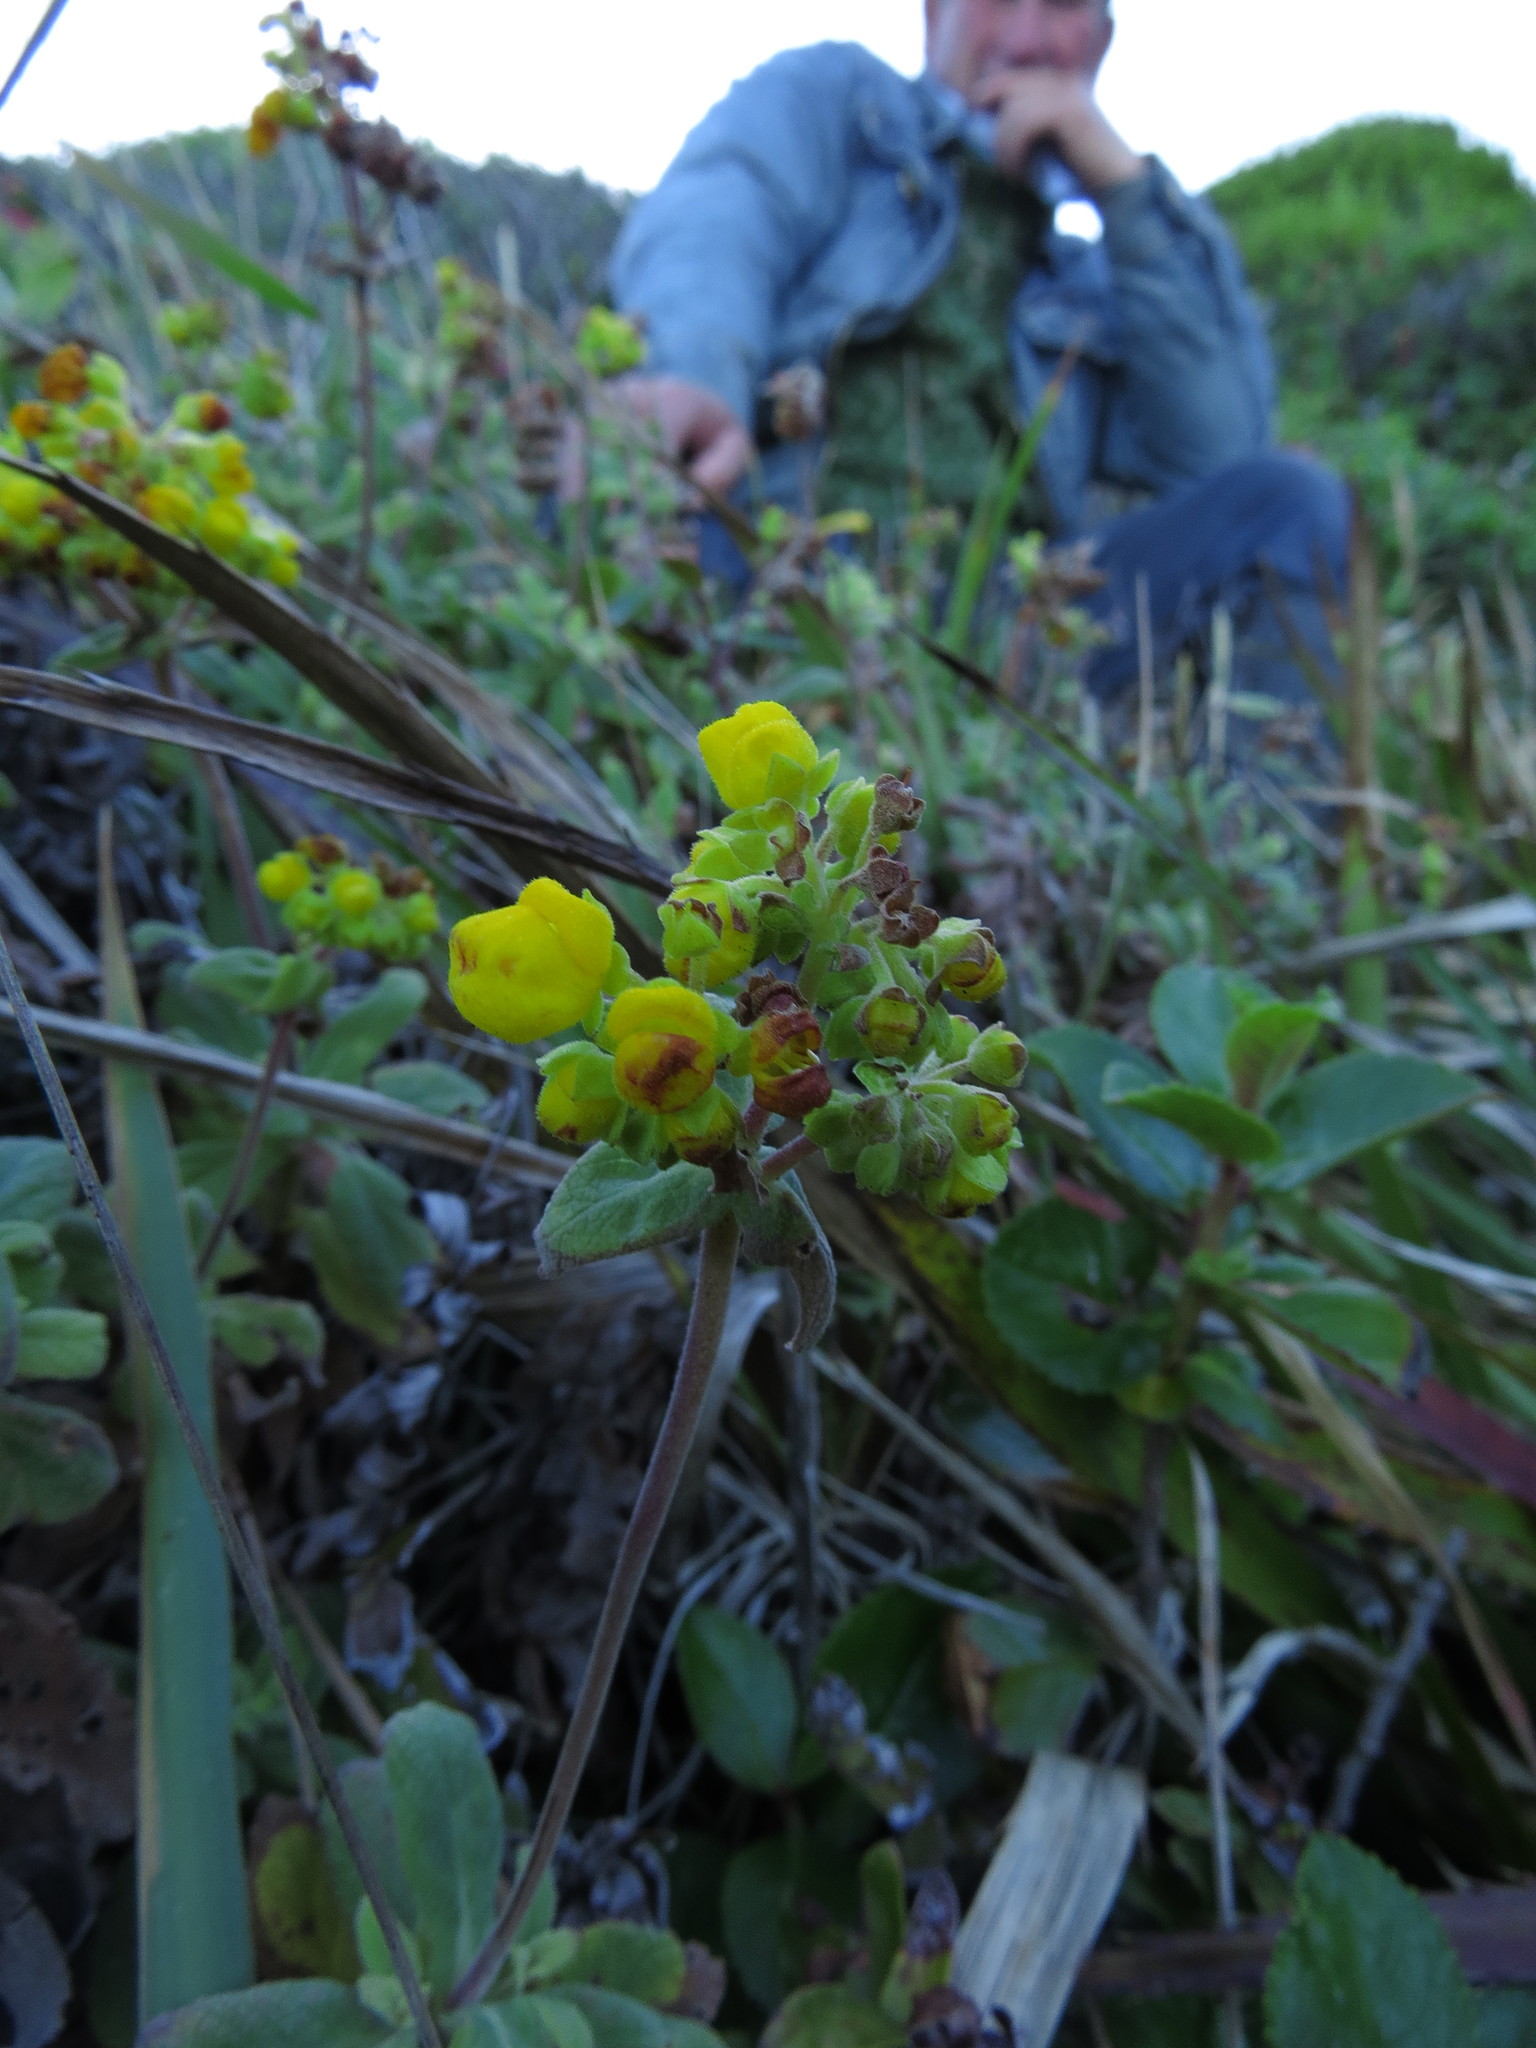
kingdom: Plantae
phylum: Tracheophyta
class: Magnoliopsida
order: Lamiales
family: Calceolariaceae
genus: Calceolaria
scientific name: Calceolaria integrifolia
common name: Bush slipperwort
